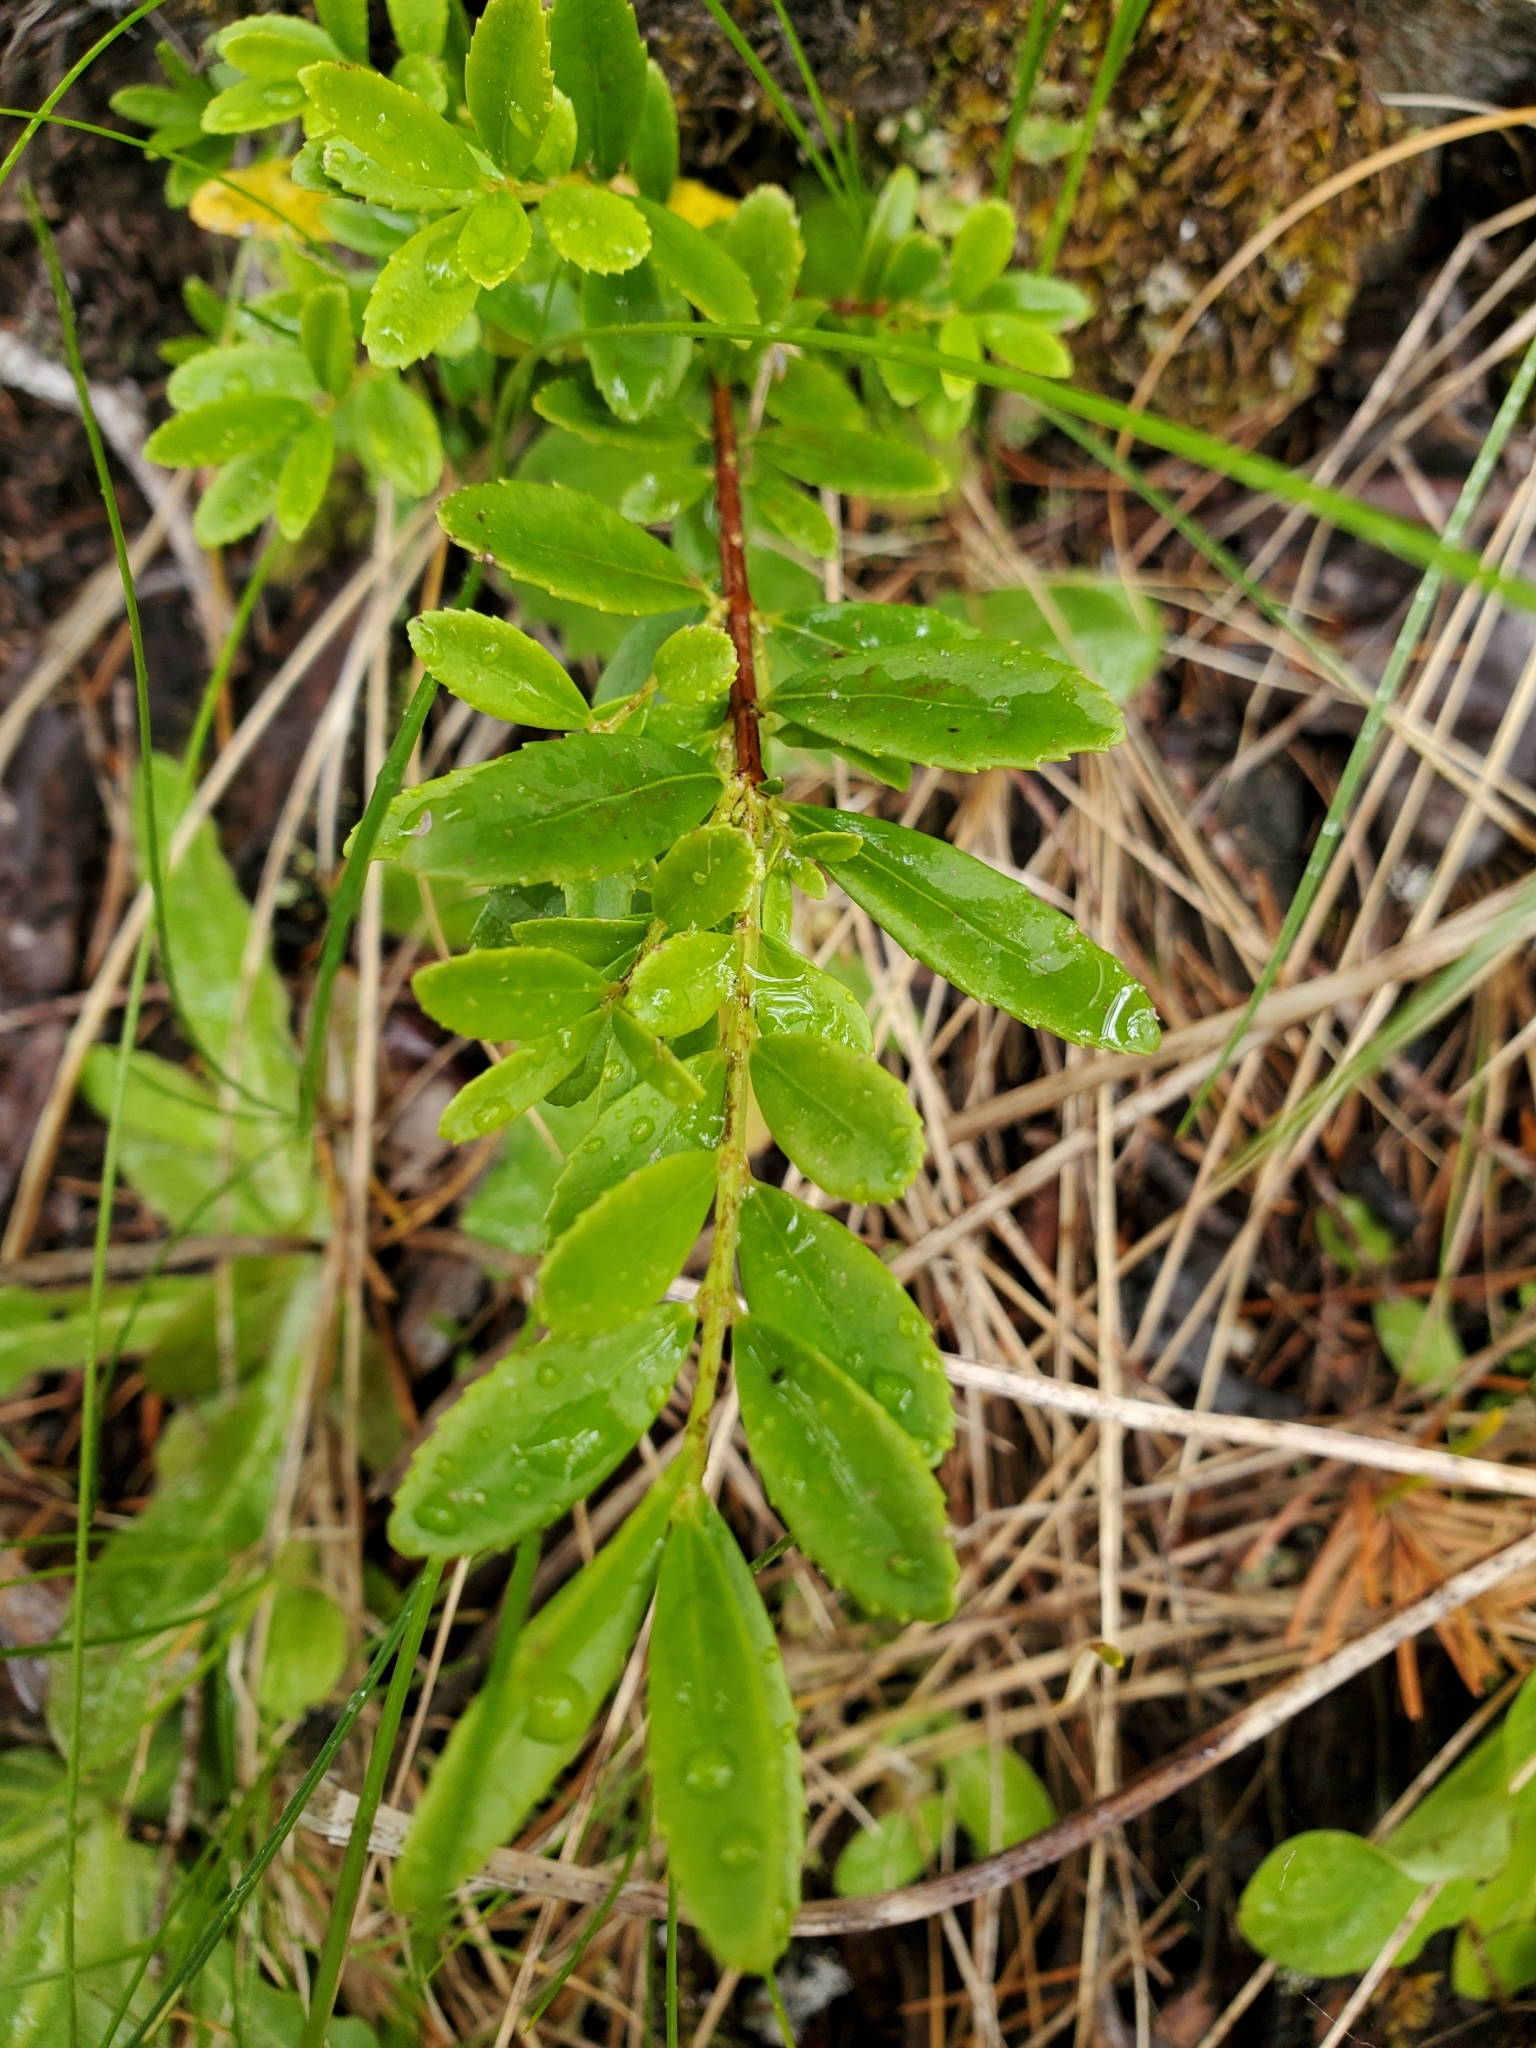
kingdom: Plantae
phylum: Tracheophyta
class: Magnoliopsida
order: Celastrales
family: Celastraceae
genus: Paxistima
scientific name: Paxistima myrsinites
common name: Mountain-lover
